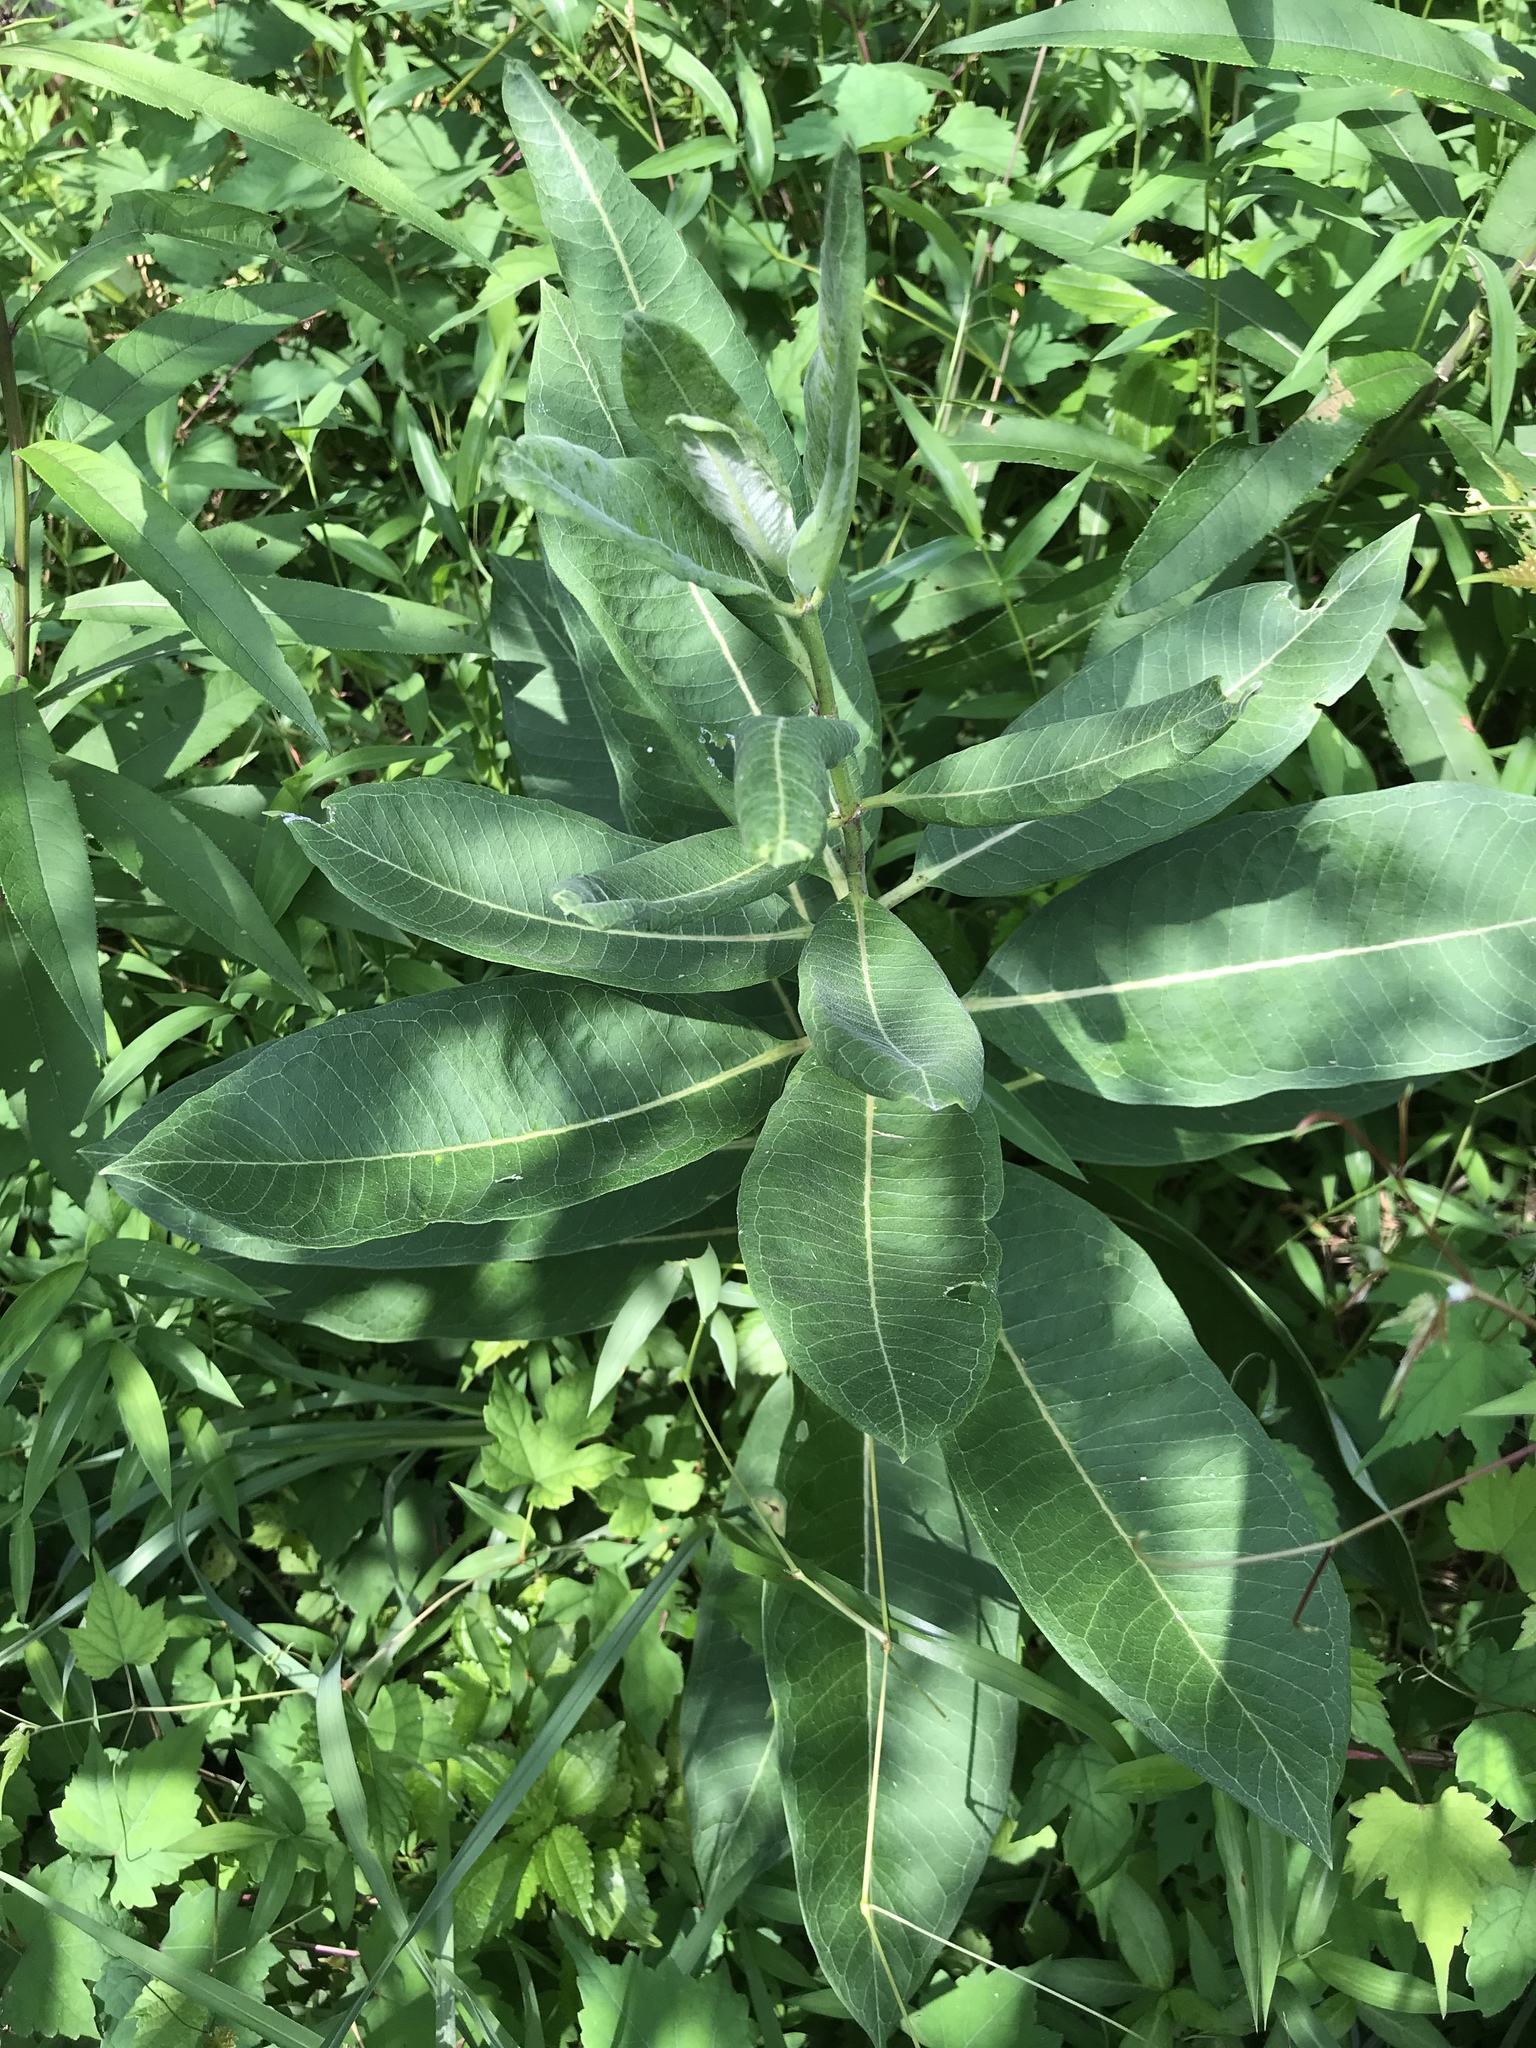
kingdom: Plantae
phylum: Tracheophyta
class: Magnoliopsida
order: Gentianales
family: Apocynaceae
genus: Asclepias
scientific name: Asclepias syriaca
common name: Common milkweed
